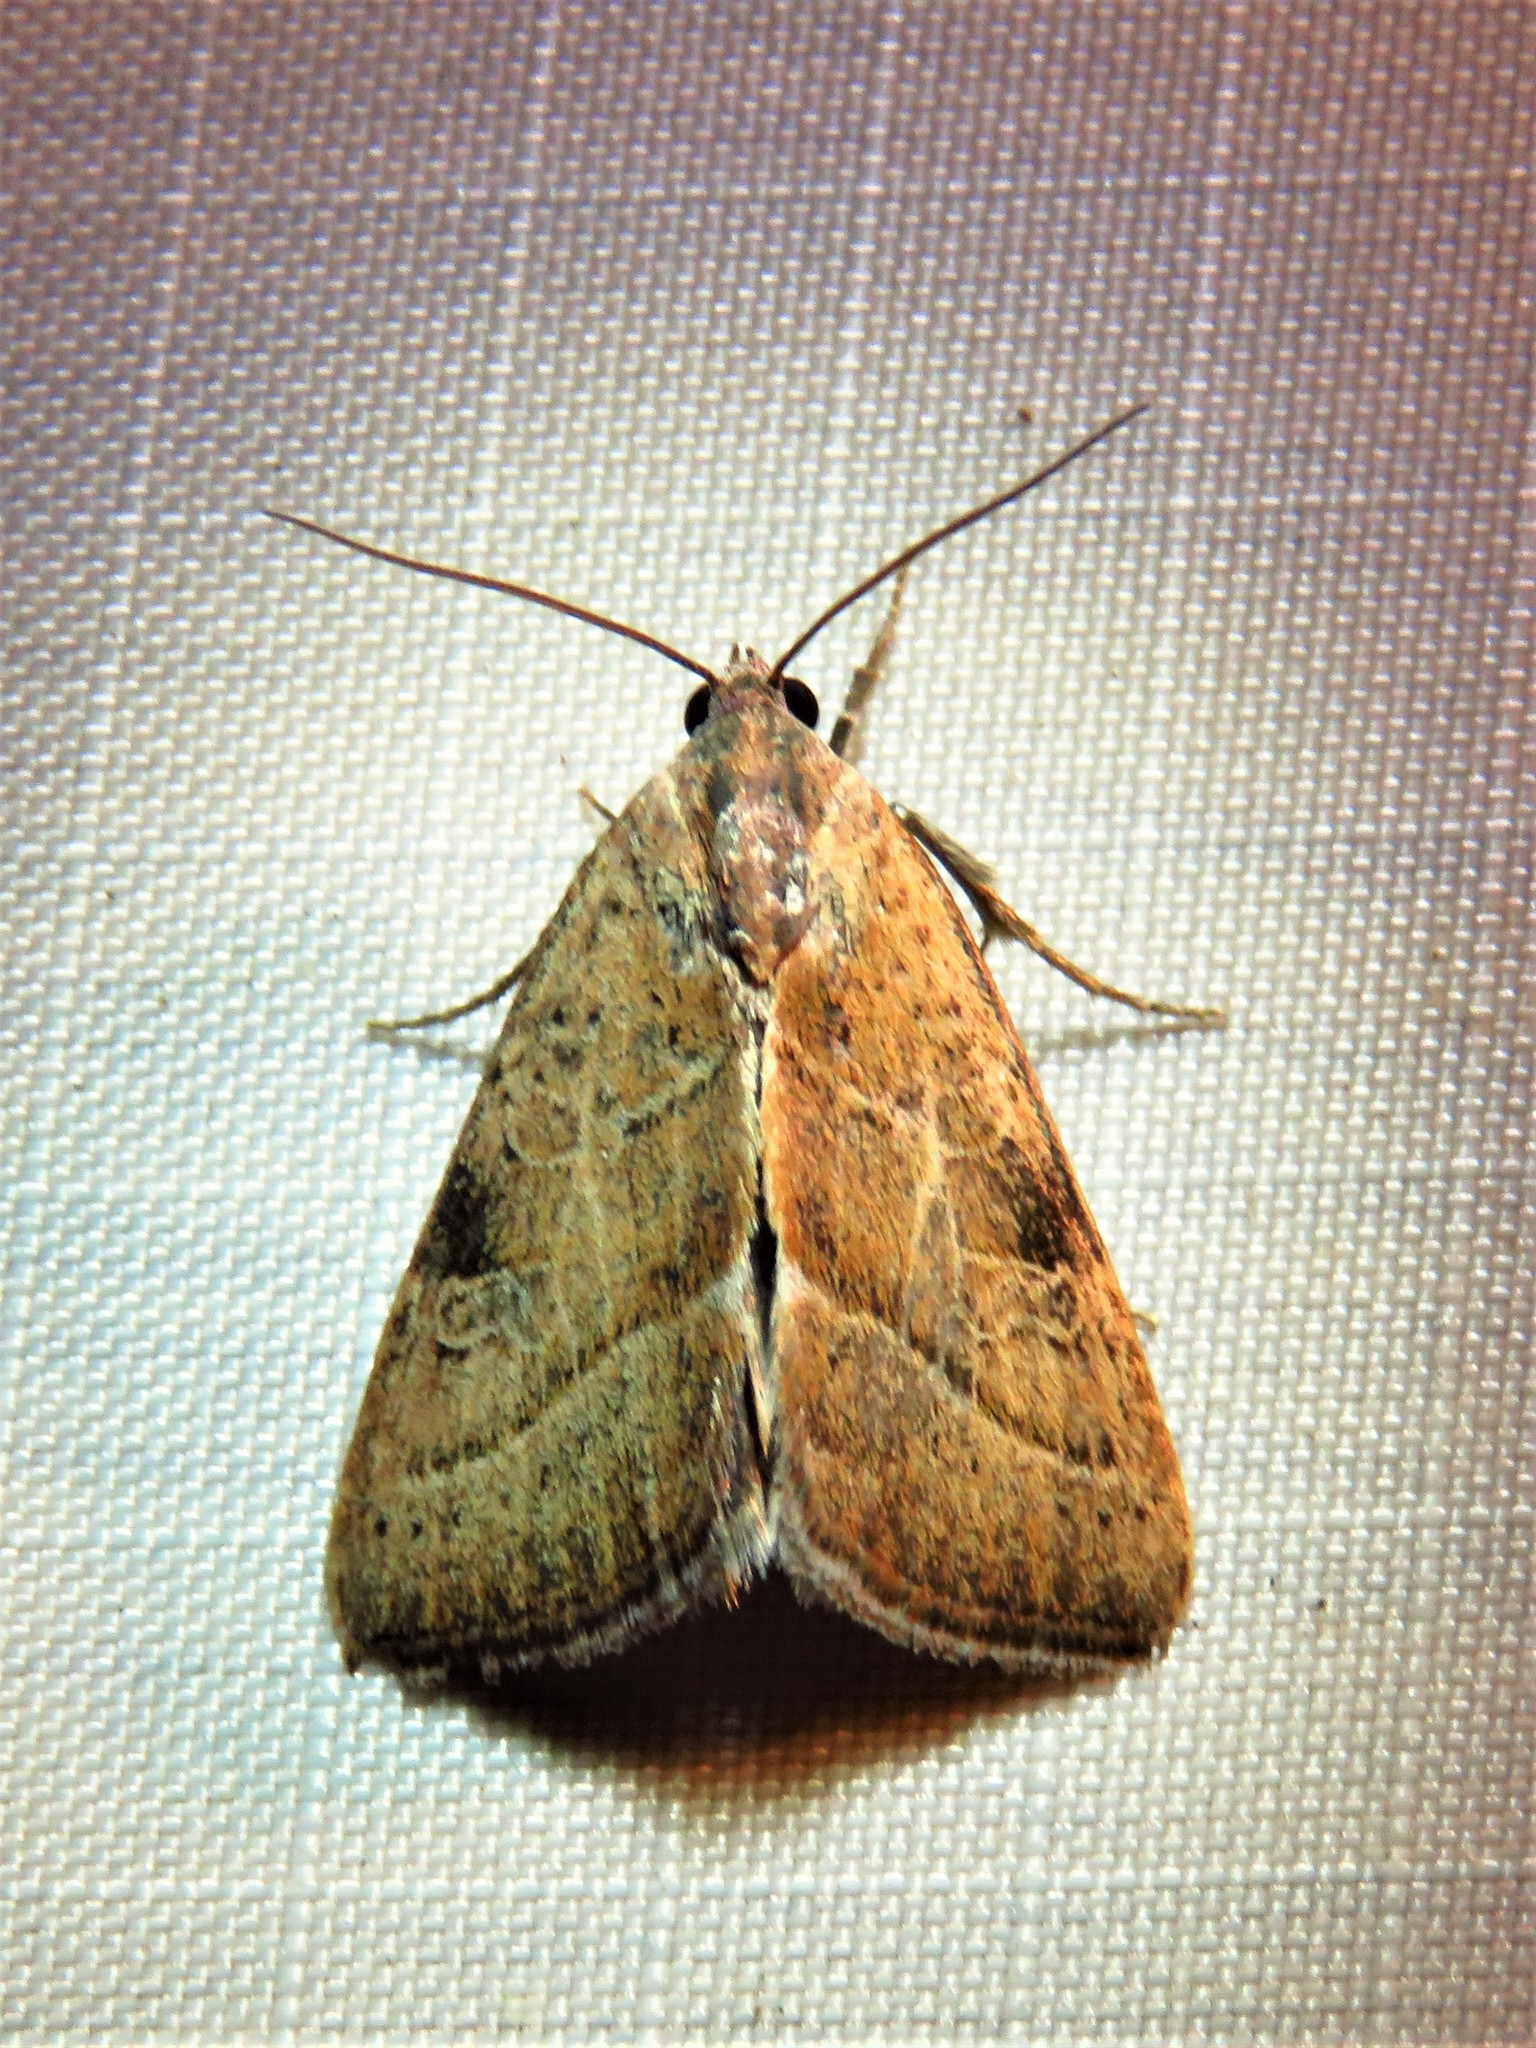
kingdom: Animalia
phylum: Arthropoda
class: Insecta
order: Lepidoptera
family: Noctuidae
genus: Galgula
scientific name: Galgula partita
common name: Wedgeling
